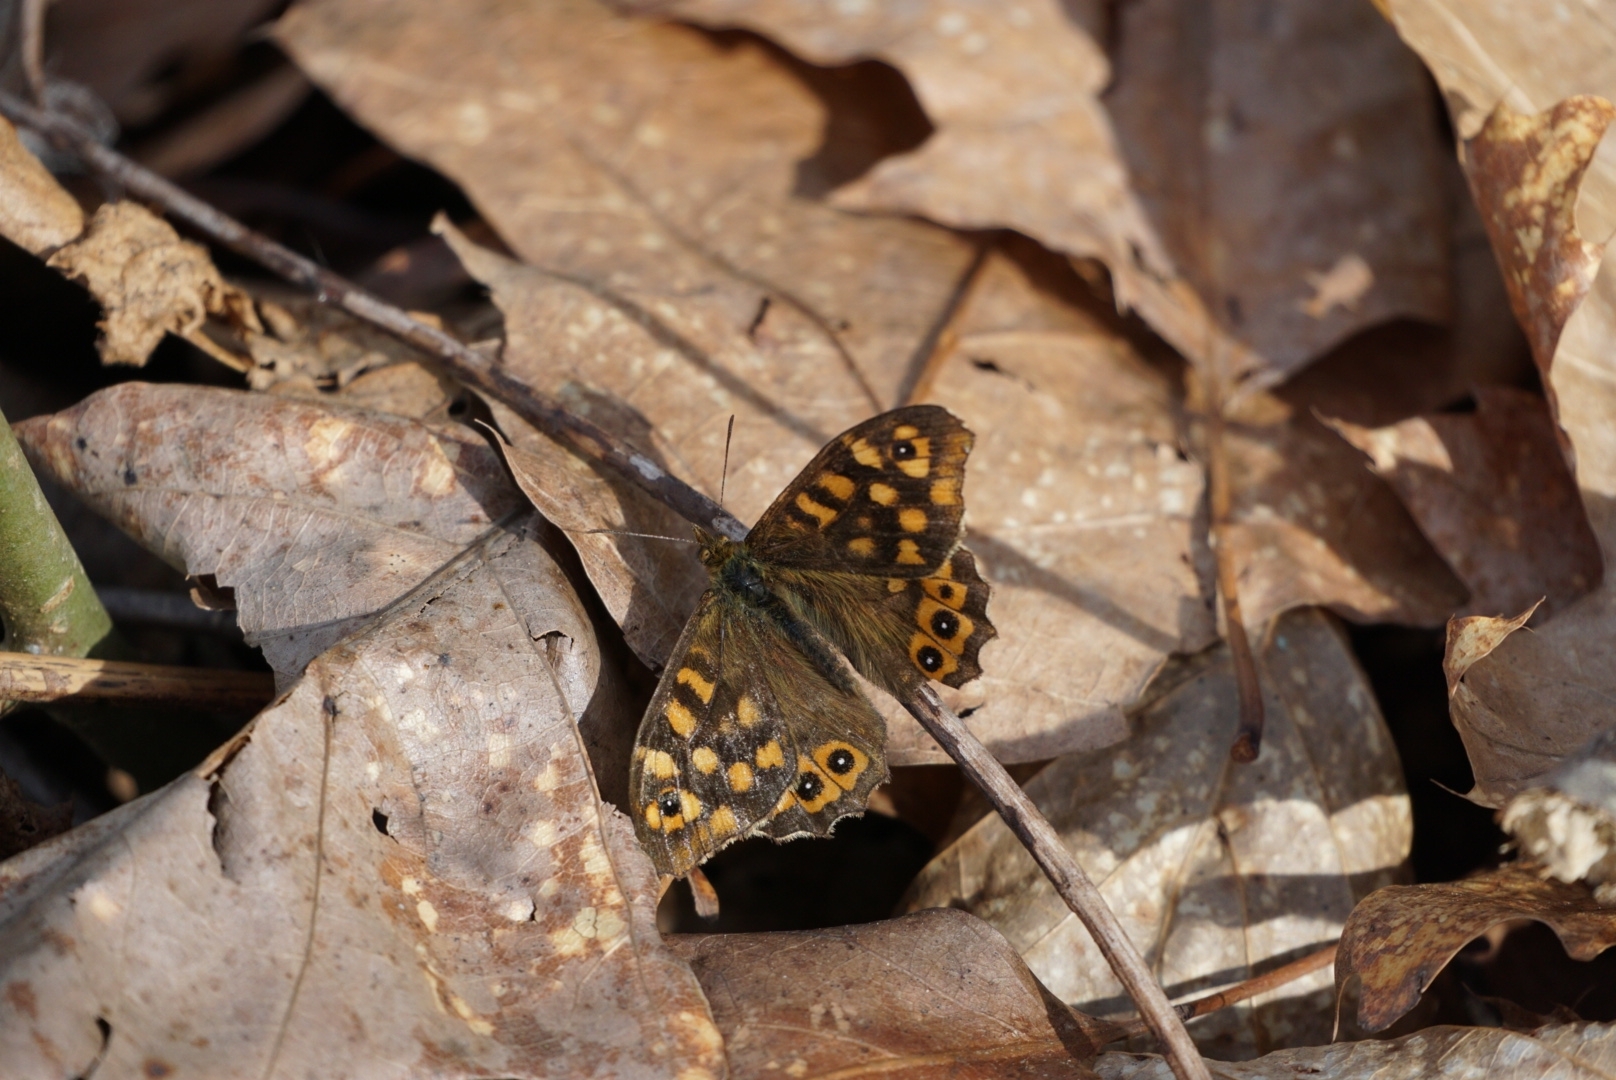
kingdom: Animalia
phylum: Arthropoda
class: Insecta
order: Lepidoptera
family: Nymphalidae
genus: Pararge
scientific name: Pararge aegeria
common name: Speckled wood
